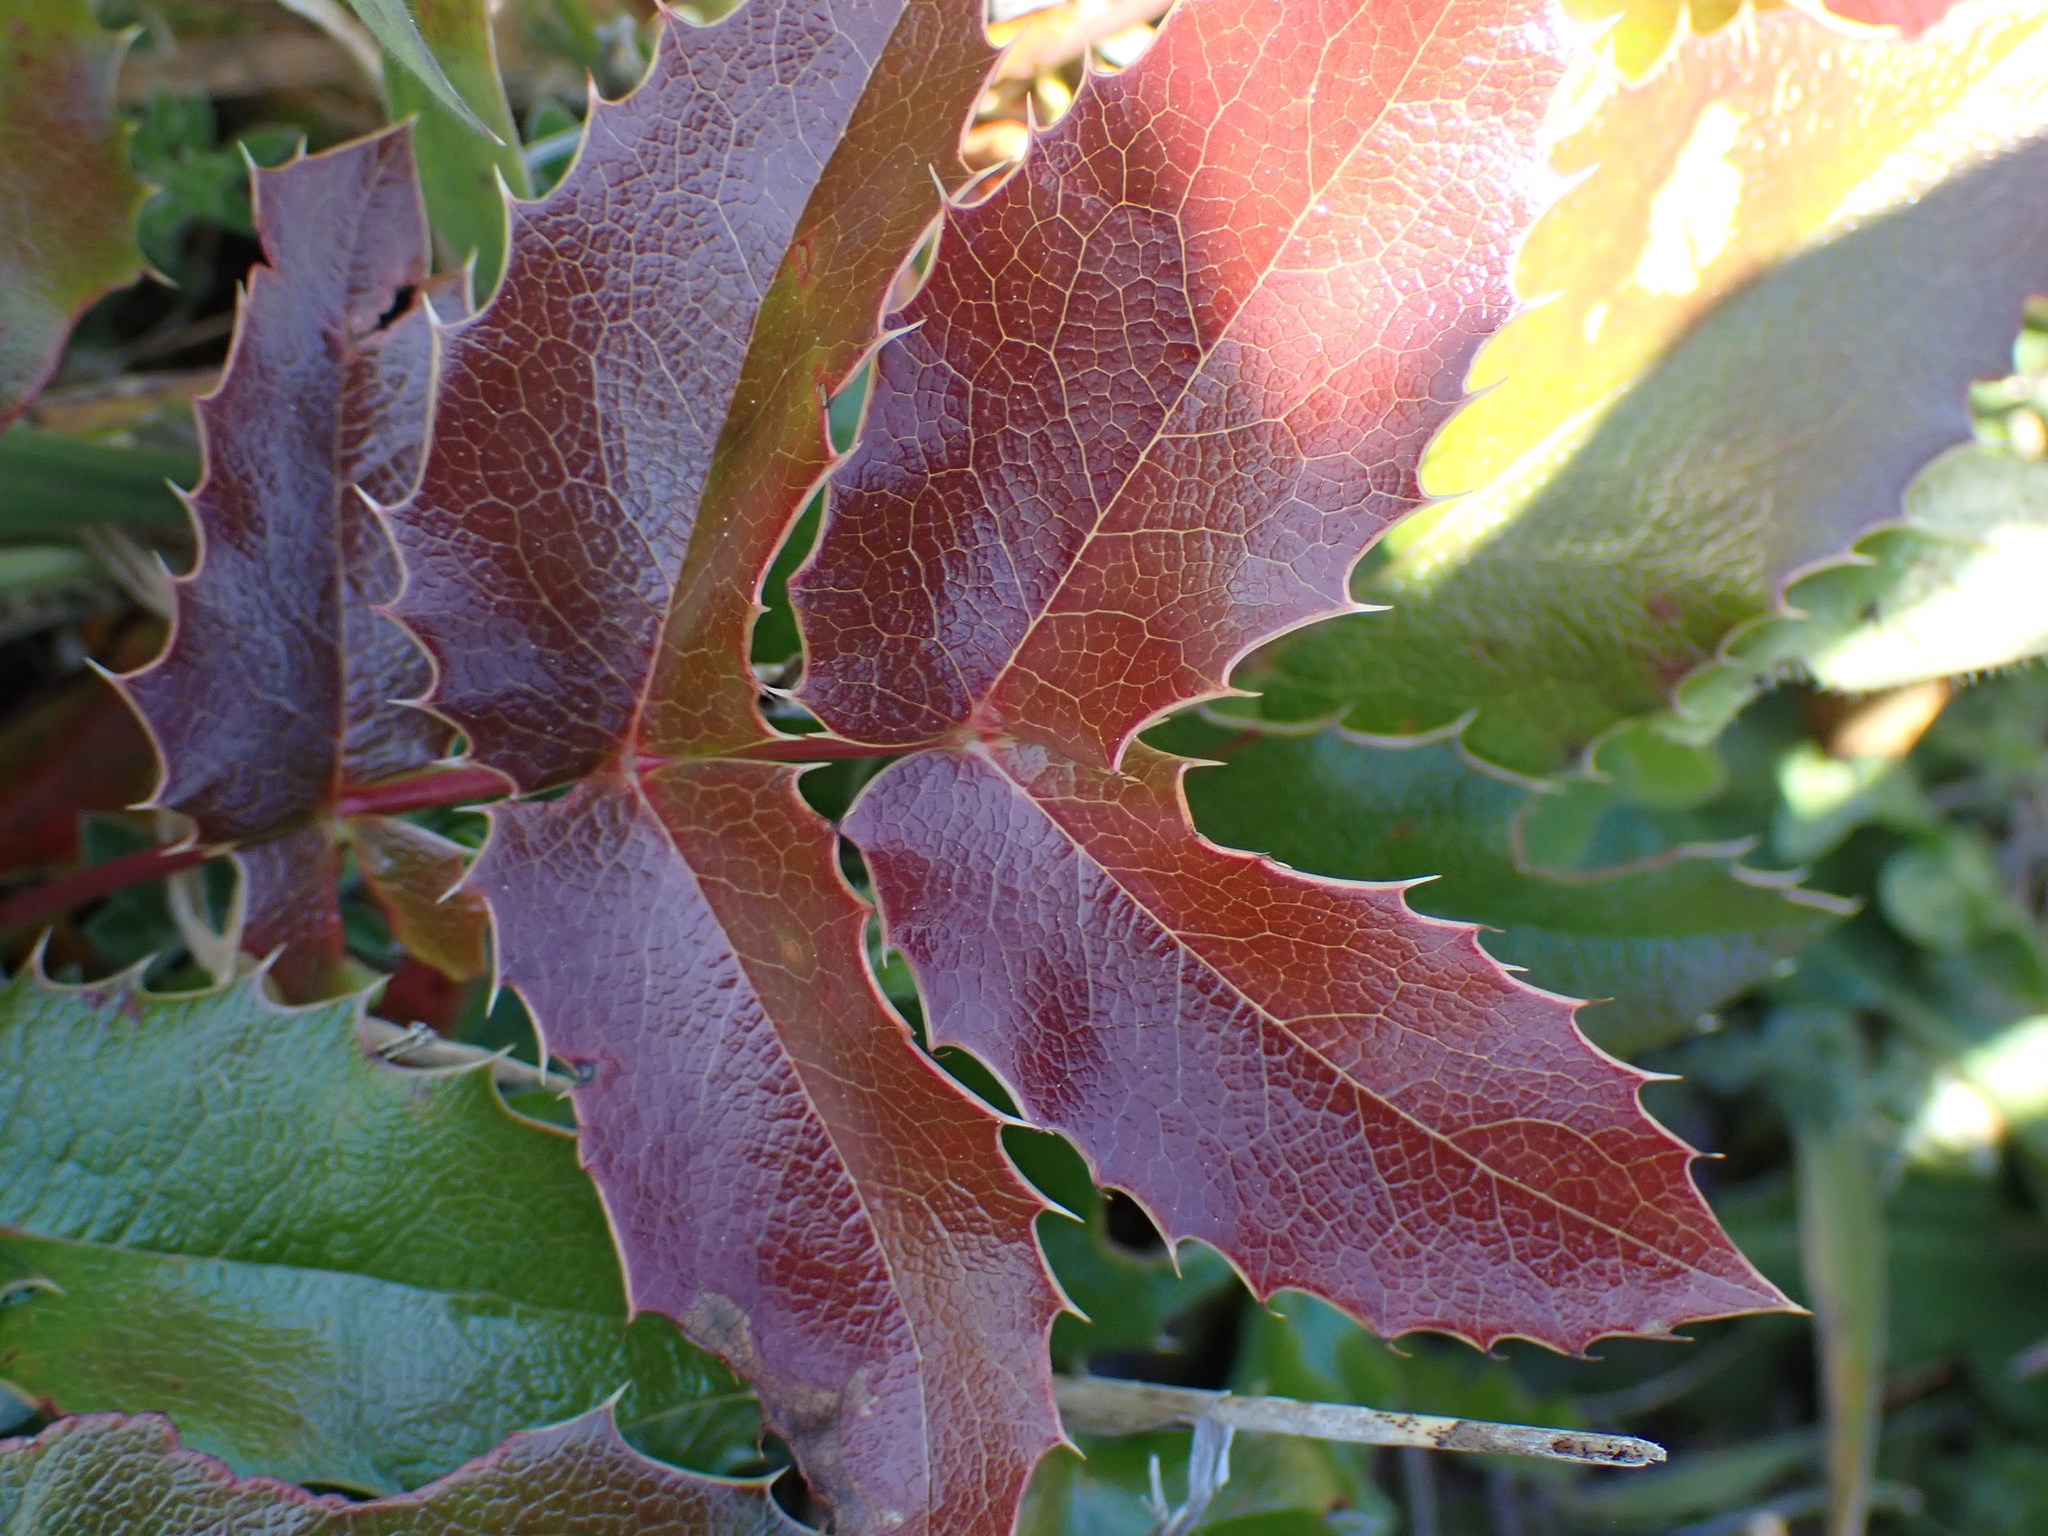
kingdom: Plantae
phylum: Tracheophyta
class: Magnoliopsida
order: Ranunculales
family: Berberidaceae
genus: Mahonia
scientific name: Mahonia aquifolium
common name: Oregon-grape
